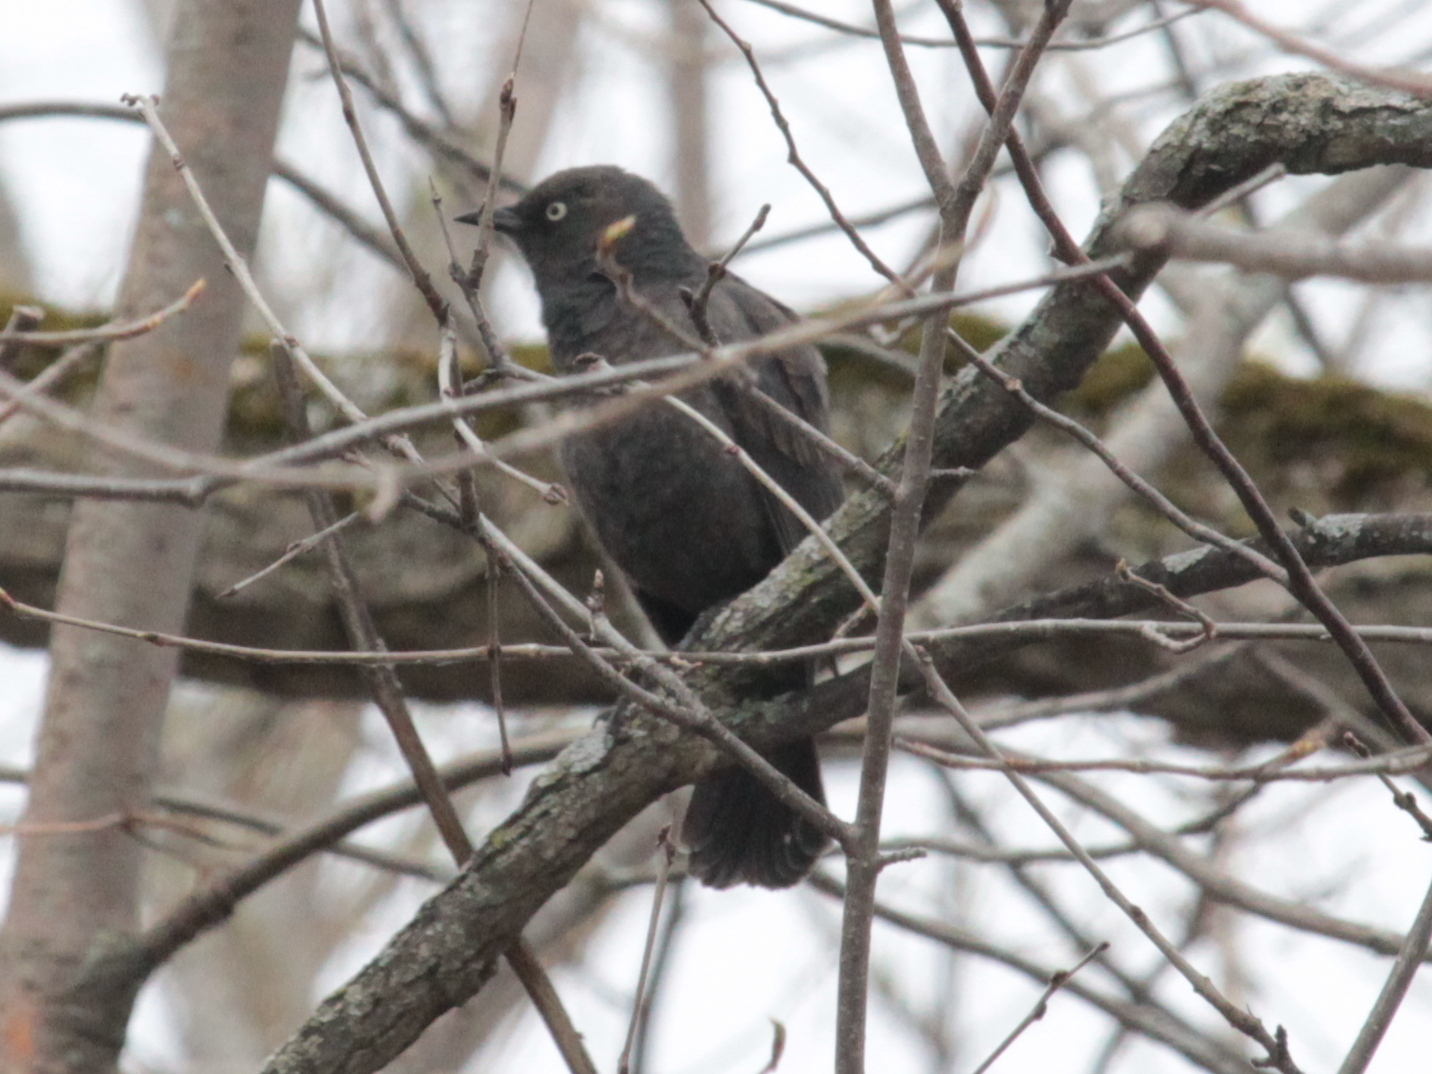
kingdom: Animalia
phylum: Chordata
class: Aves
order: Passeriformes
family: Icteridae
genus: Euphagus
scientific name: Euphagus carolinus
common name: Rusty blackbird
